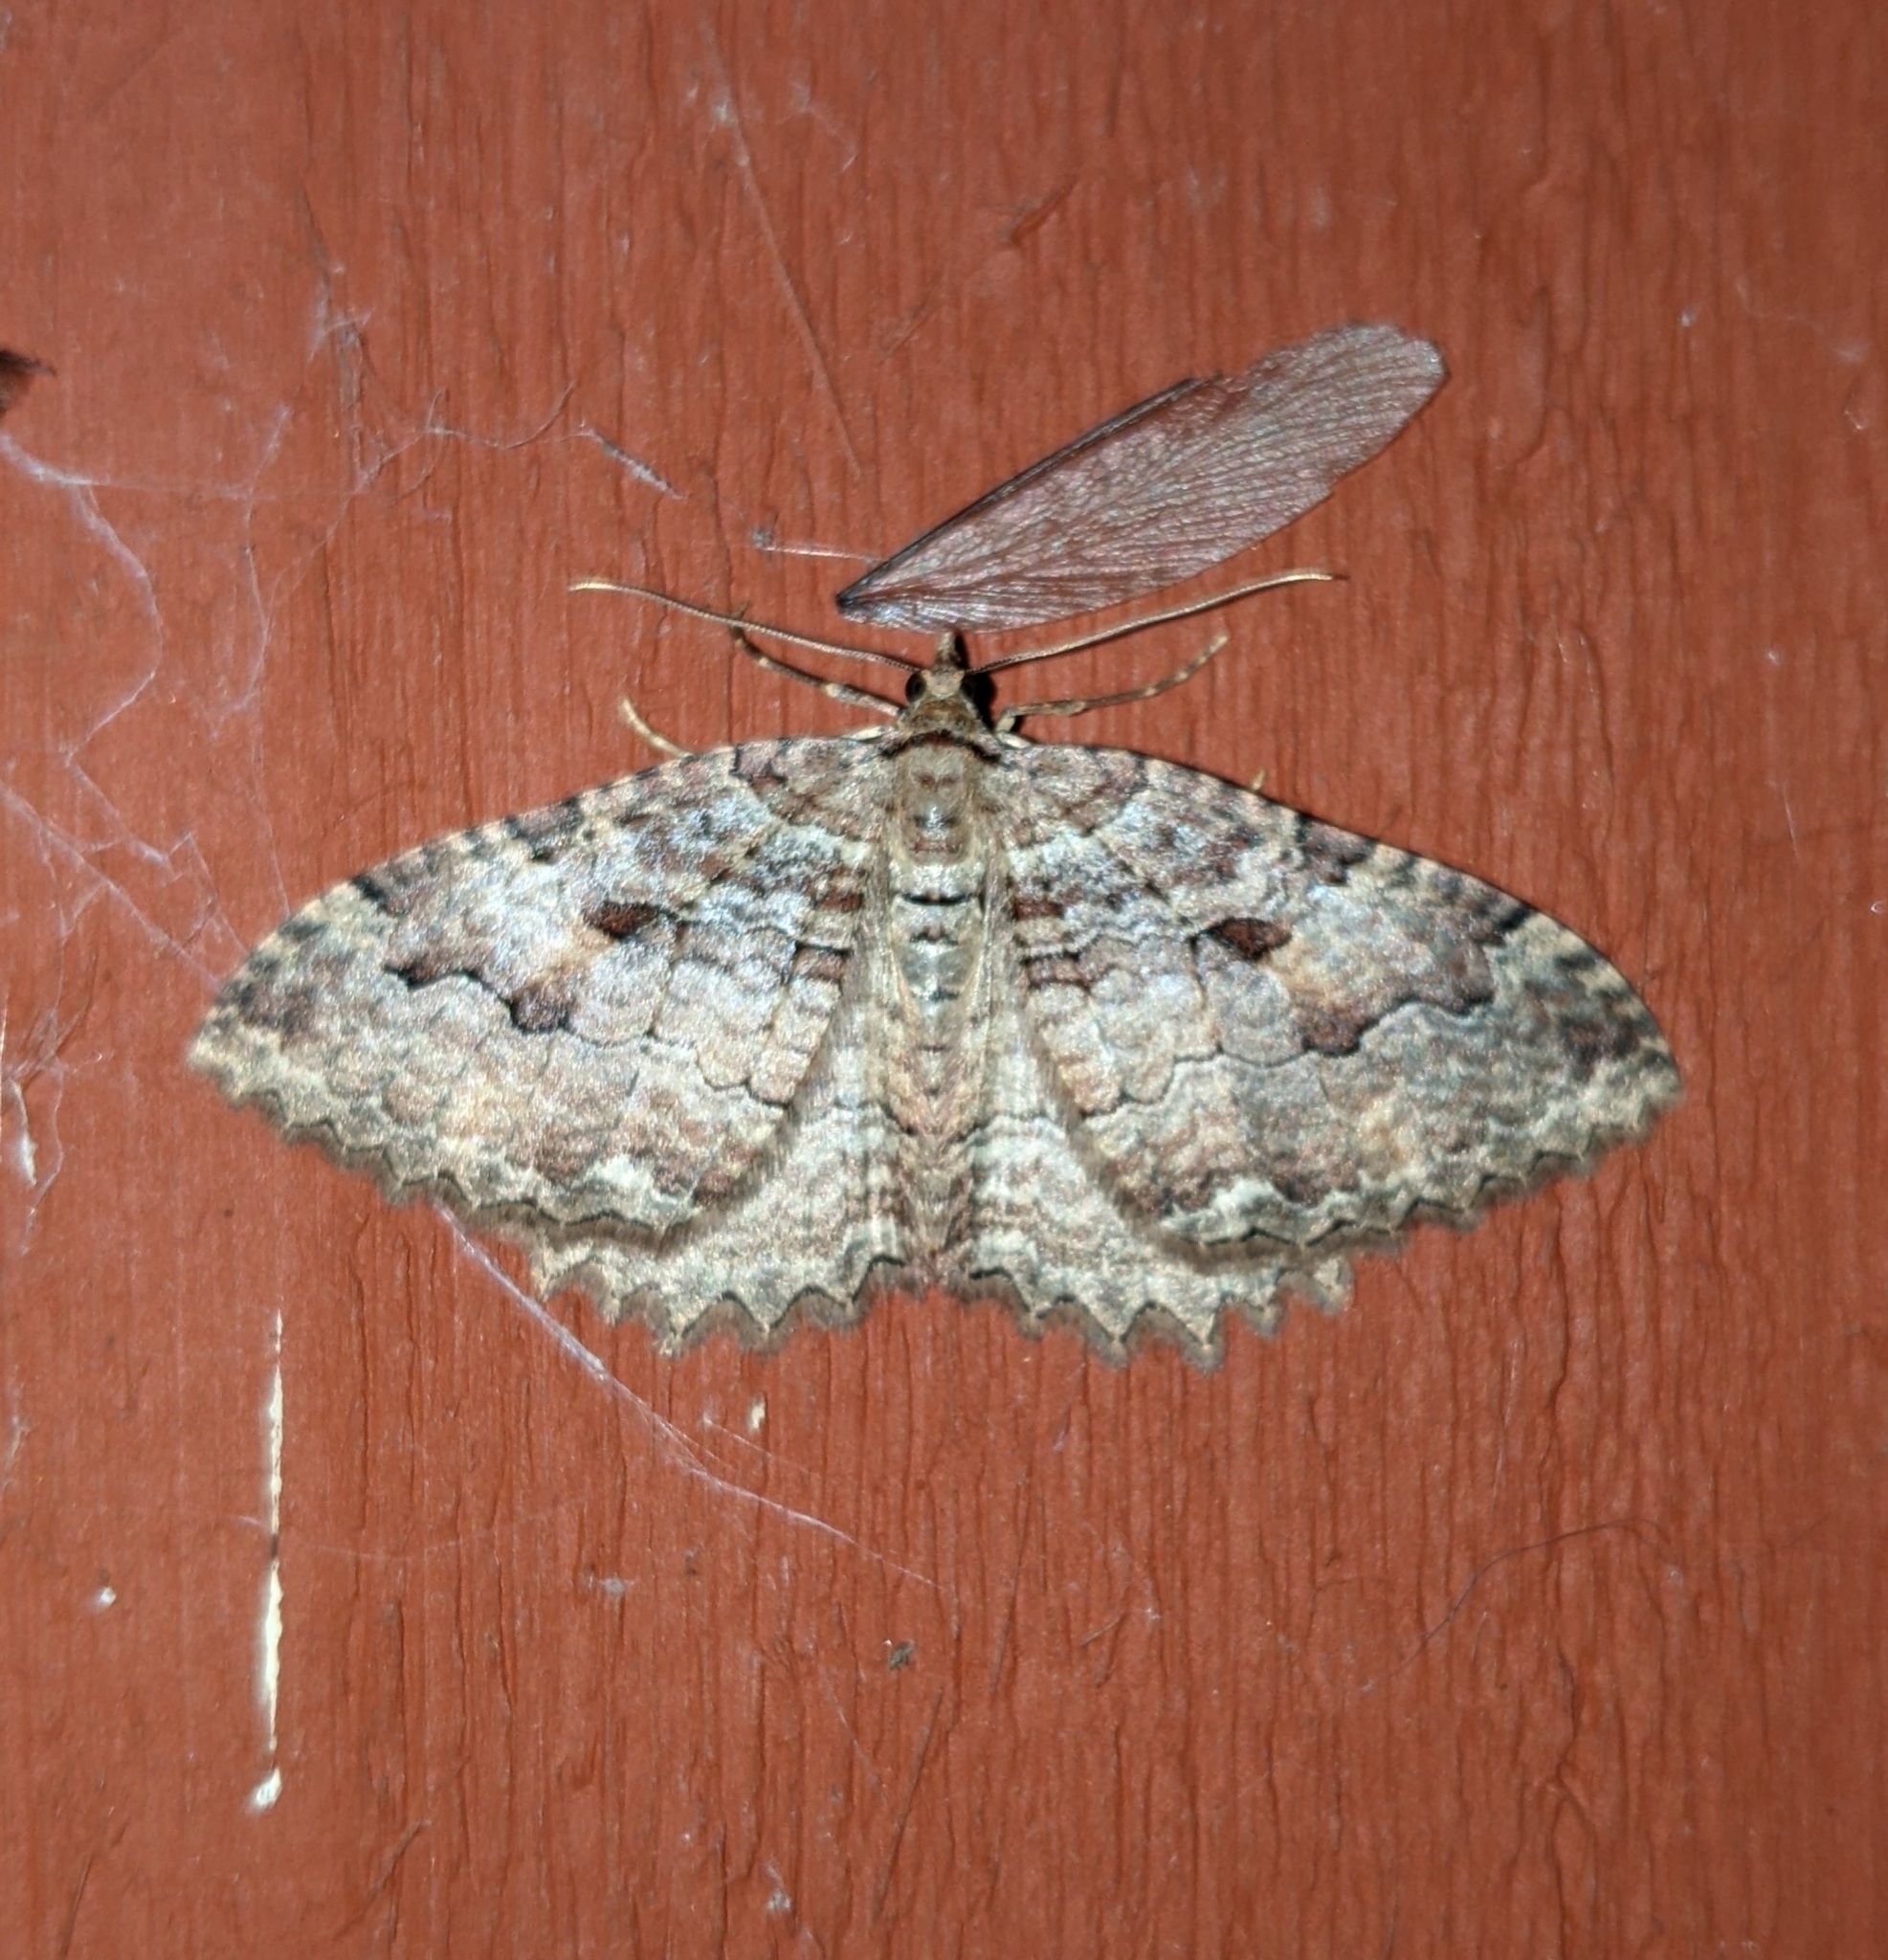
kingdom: Animalia
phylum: Arthropoda
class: Insecta
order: Lepidoptera
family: Geometridae
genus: Triphosa
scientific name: Triphosa haesitata
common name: Tissue moth
